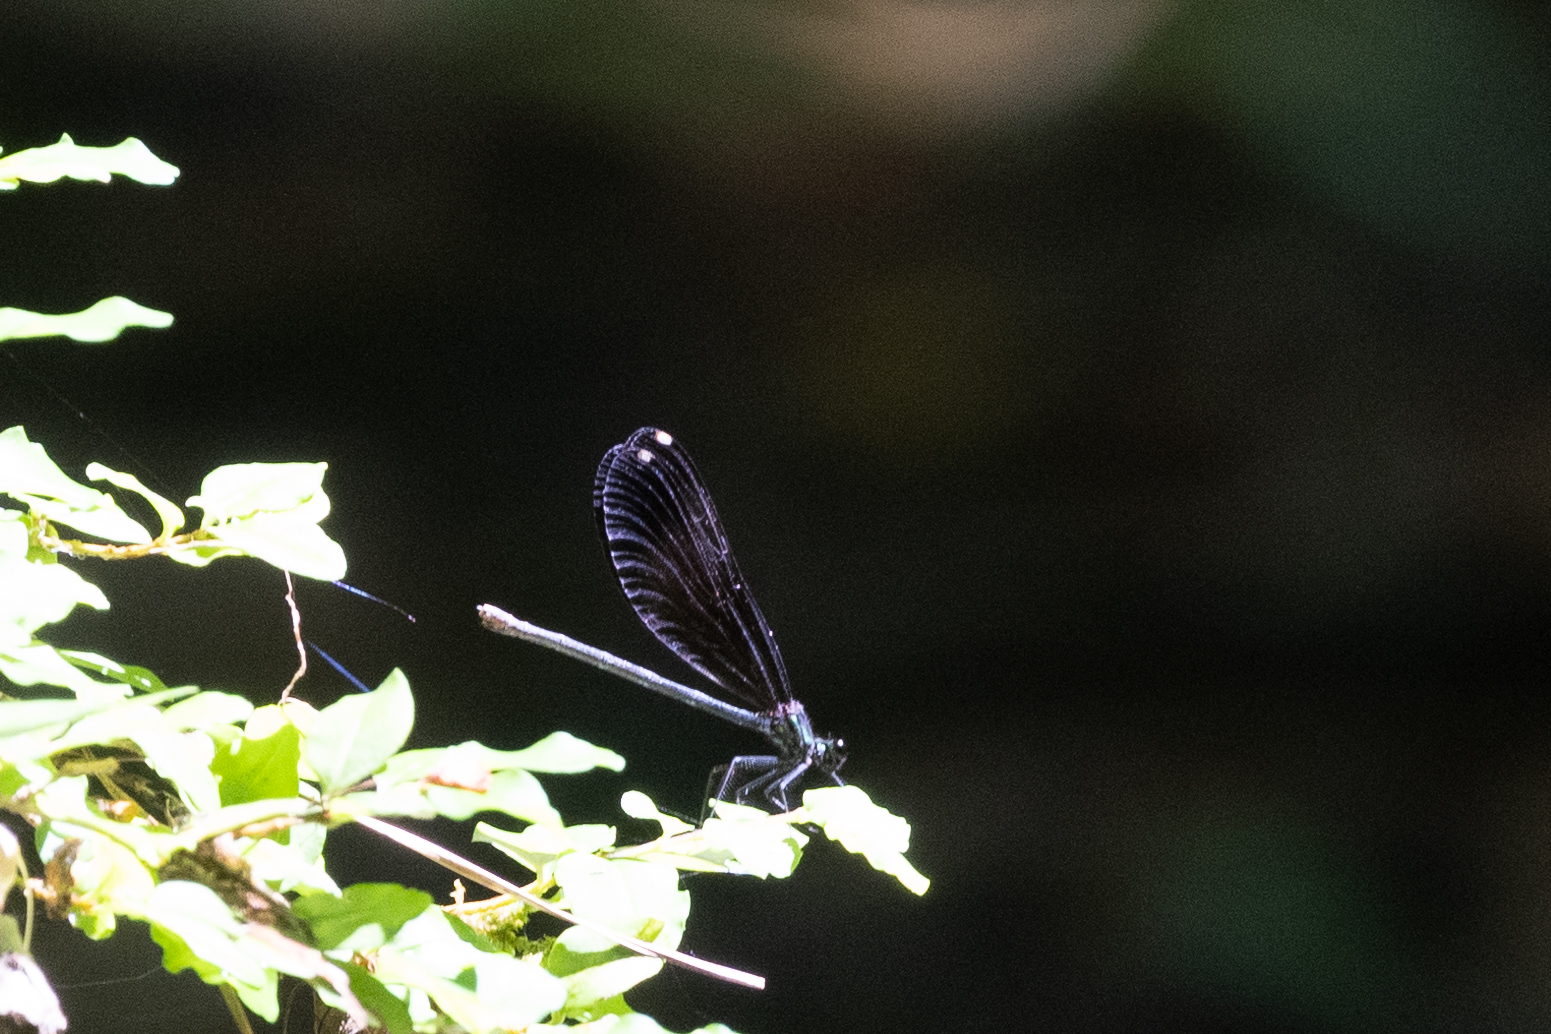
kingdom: Animalia
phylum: Arthropoda
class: Insecta
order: Odonata
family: Calopterygidae
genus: Calopteryx
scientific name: Calopteryx maculata
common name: Ebony jewelwing
